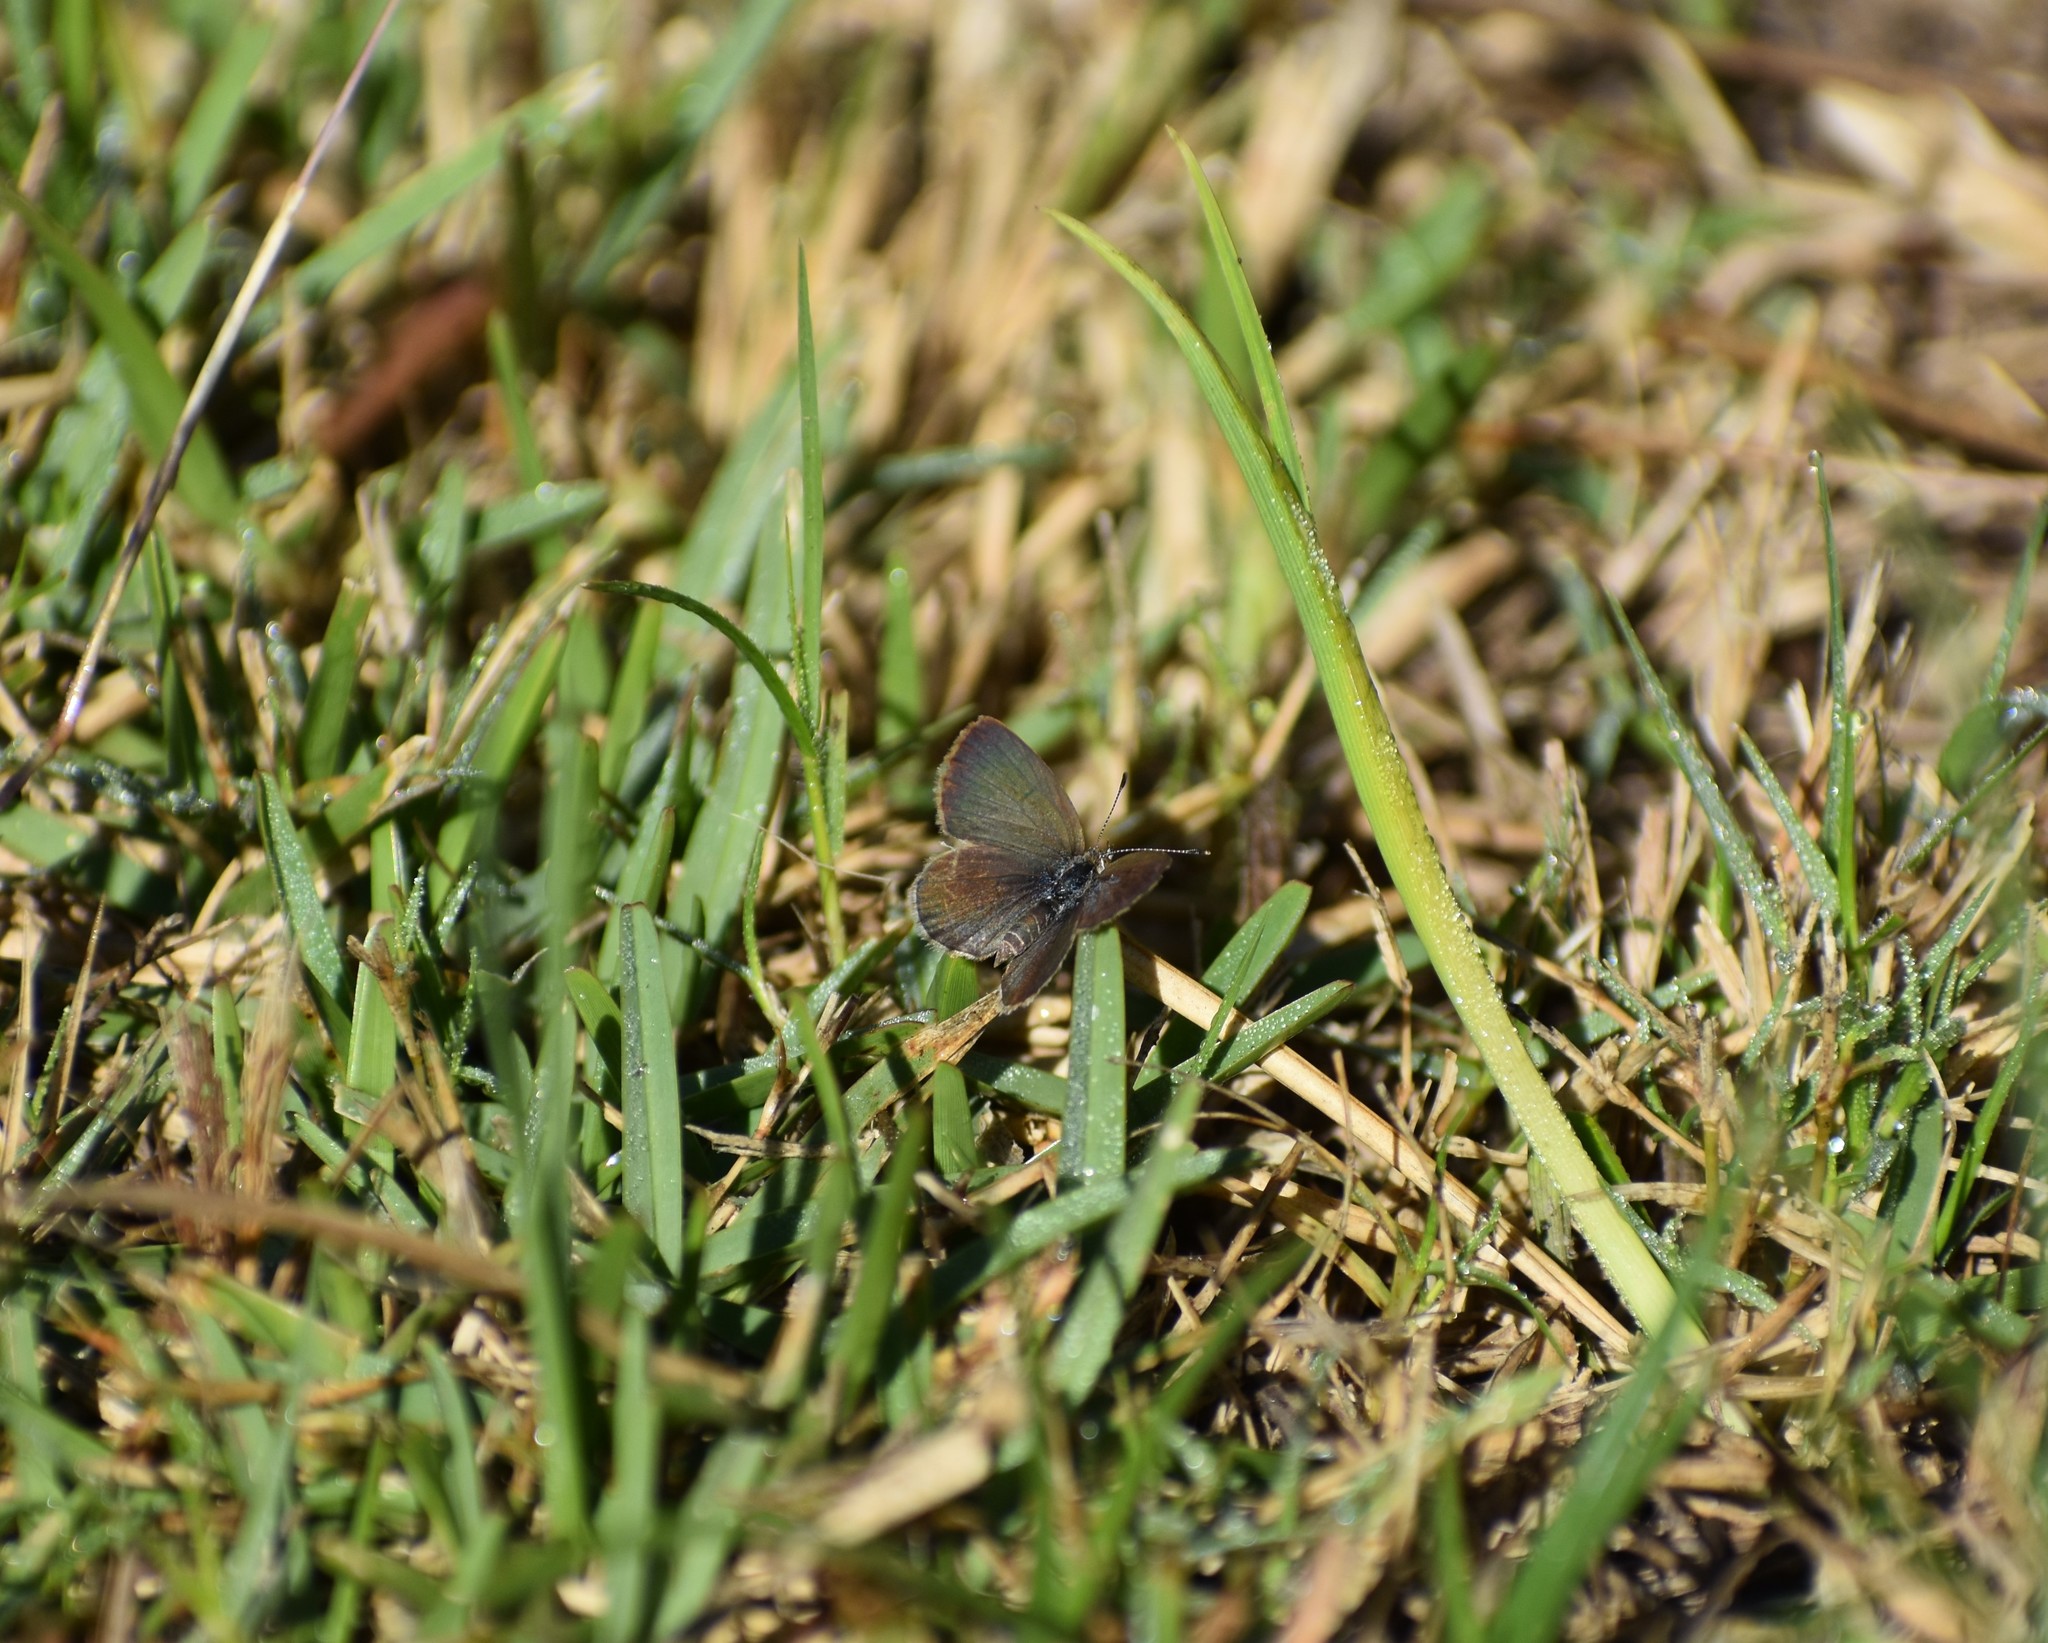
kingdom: Animalia
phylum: Arthropoda
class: Insecta
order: Lepidoptera
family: Lycaenidae
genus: Zizeeria
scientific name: Zizeeria knysna
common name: African grass blue
